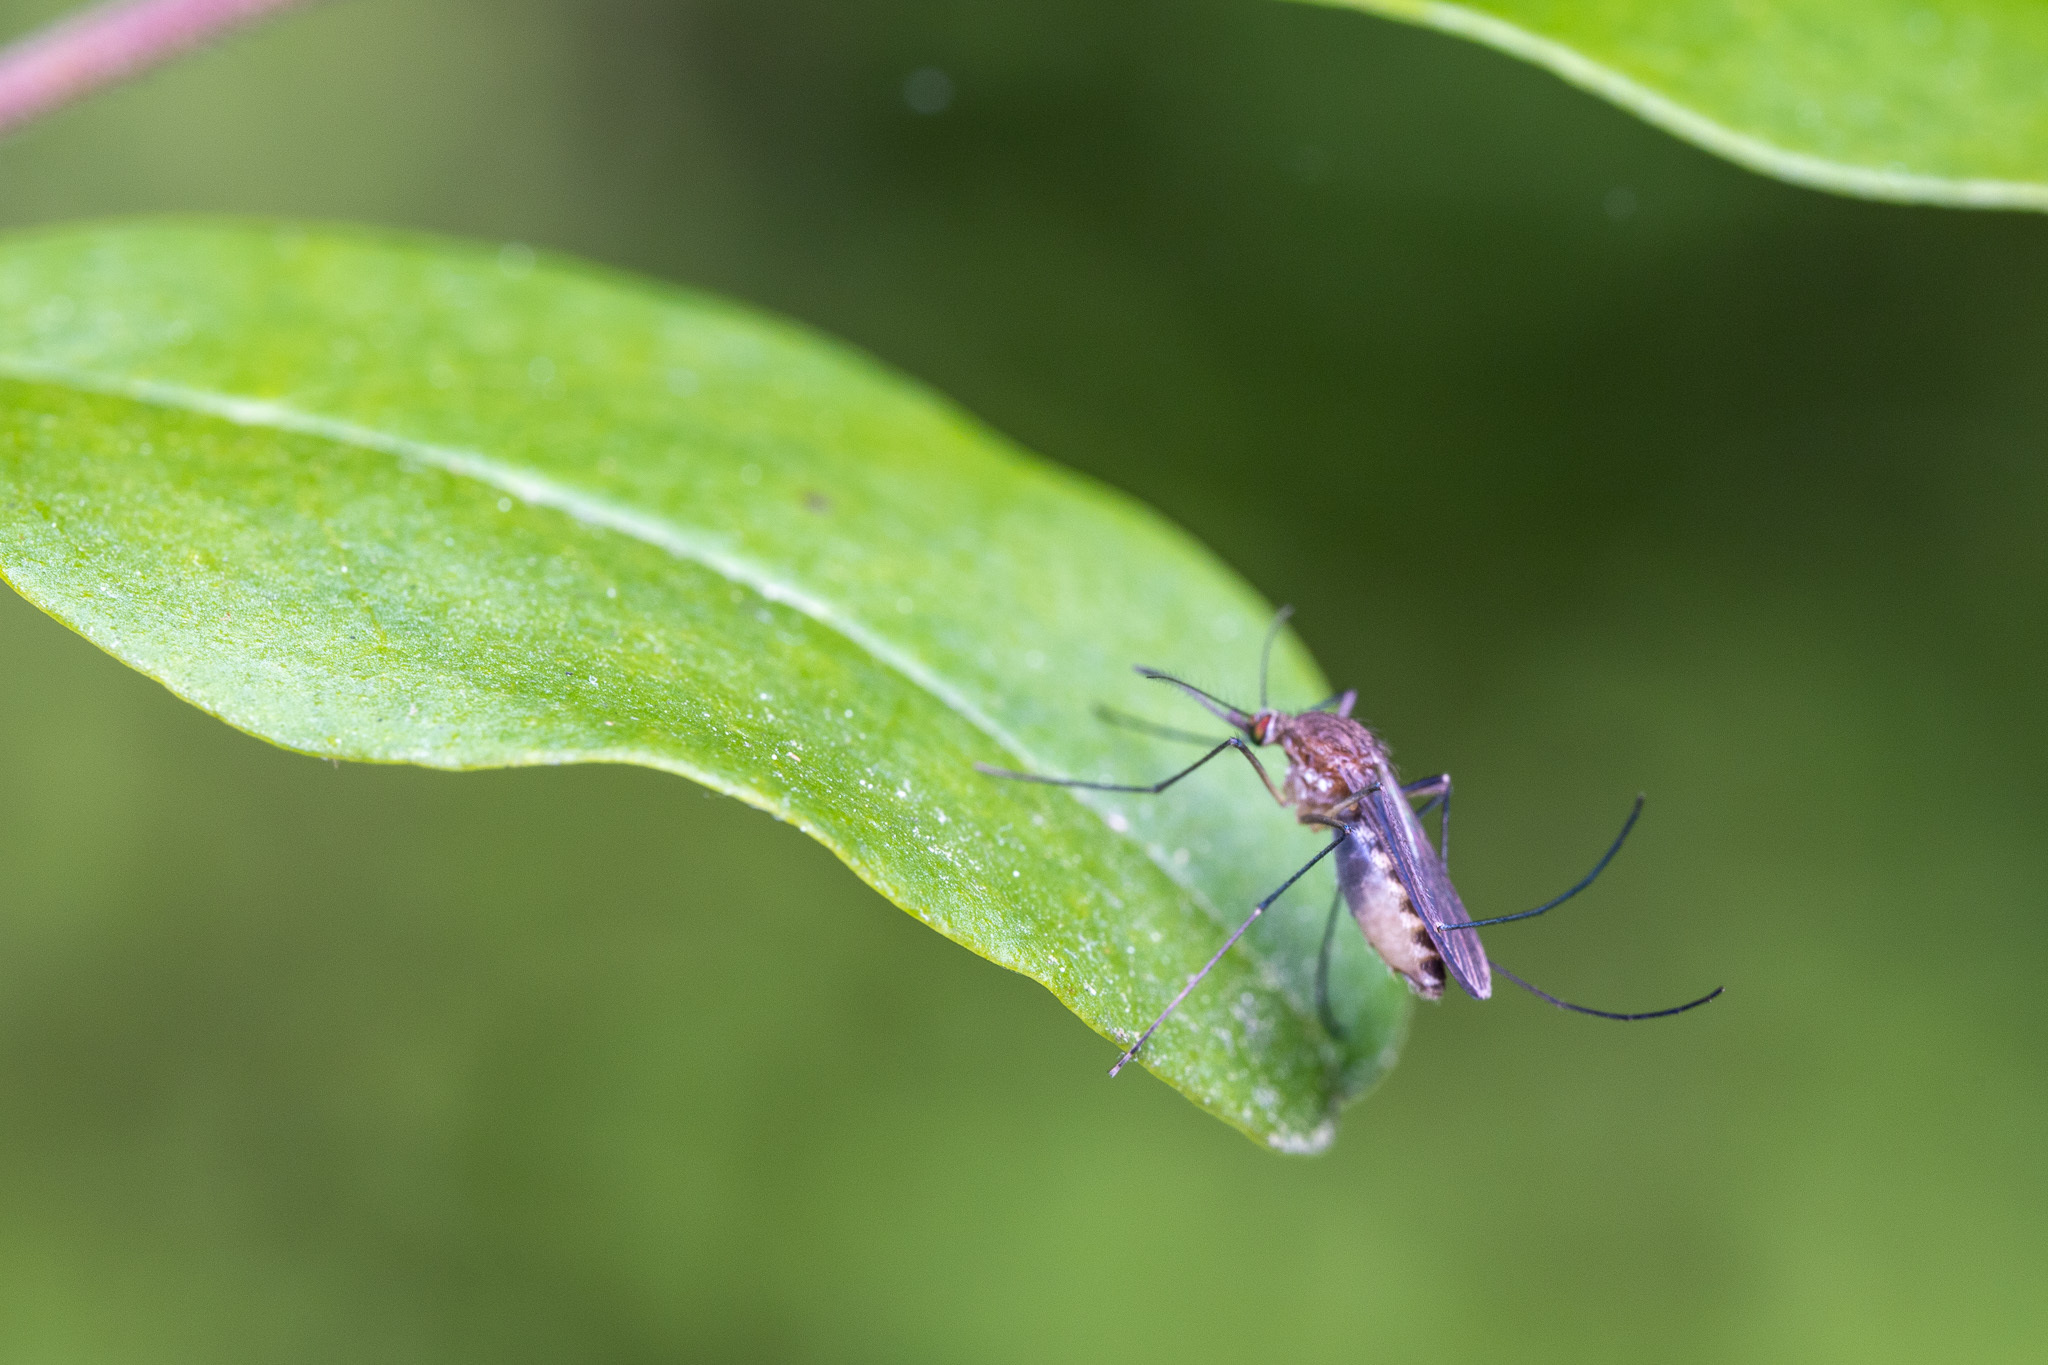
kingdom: Animalia
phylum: Arthropoda
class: Insecta
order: Diptera
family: Culicidae
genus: Culex
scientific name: Culex territans
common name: Northern frog-biting mosquito
